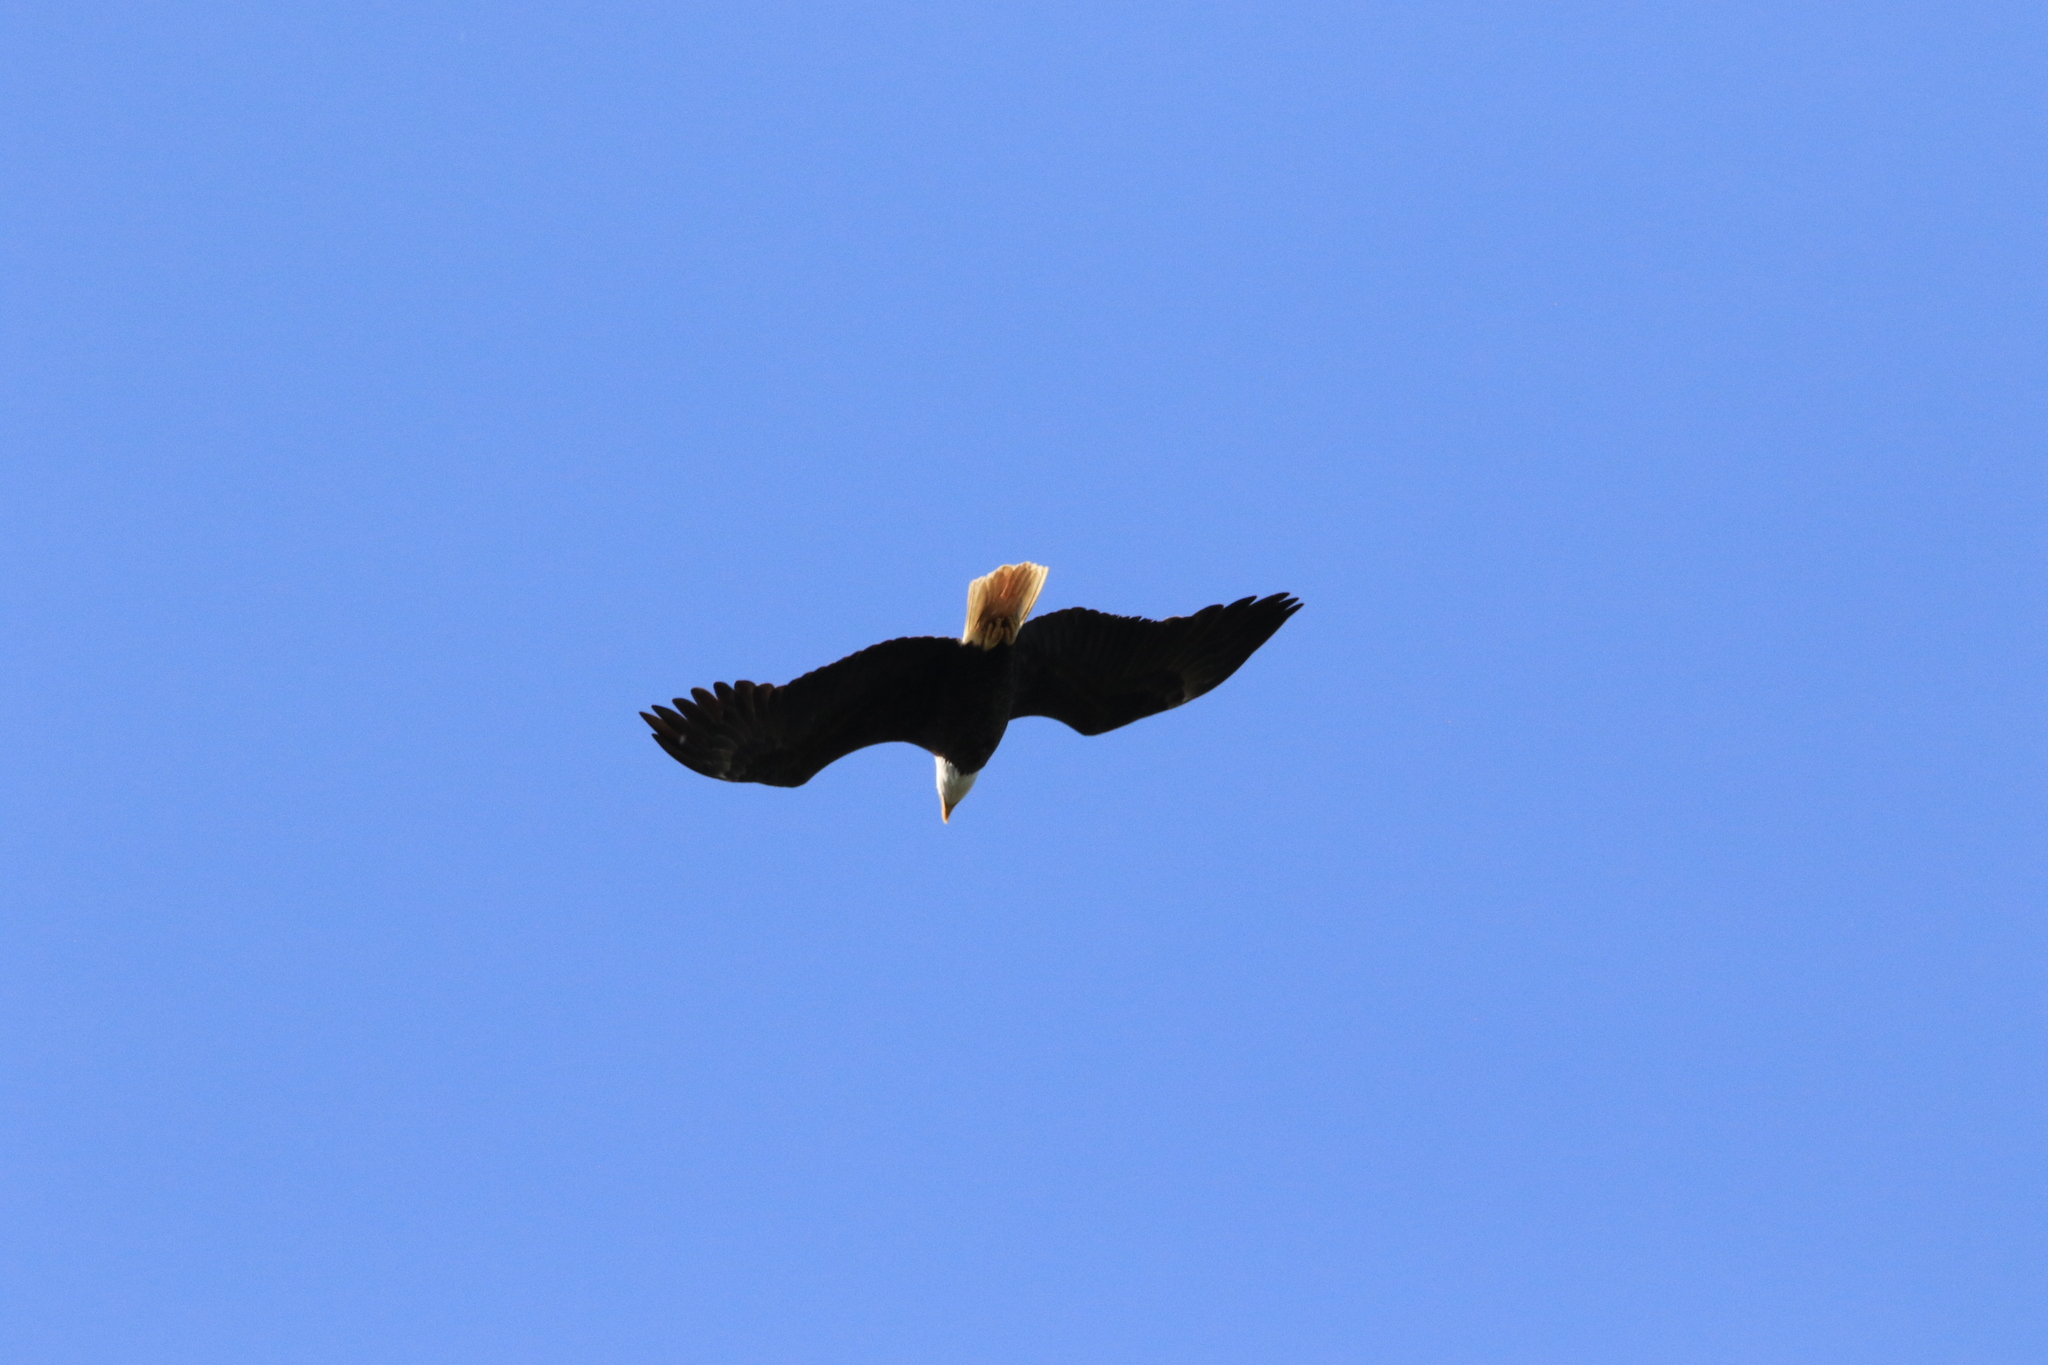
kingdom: Animalia
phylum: Chordata
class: Aves
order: Accipitriformes
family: Accipitridae
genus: Haliaeetus
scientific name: Haliaeetus leucocephalus
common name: Bald eagle
